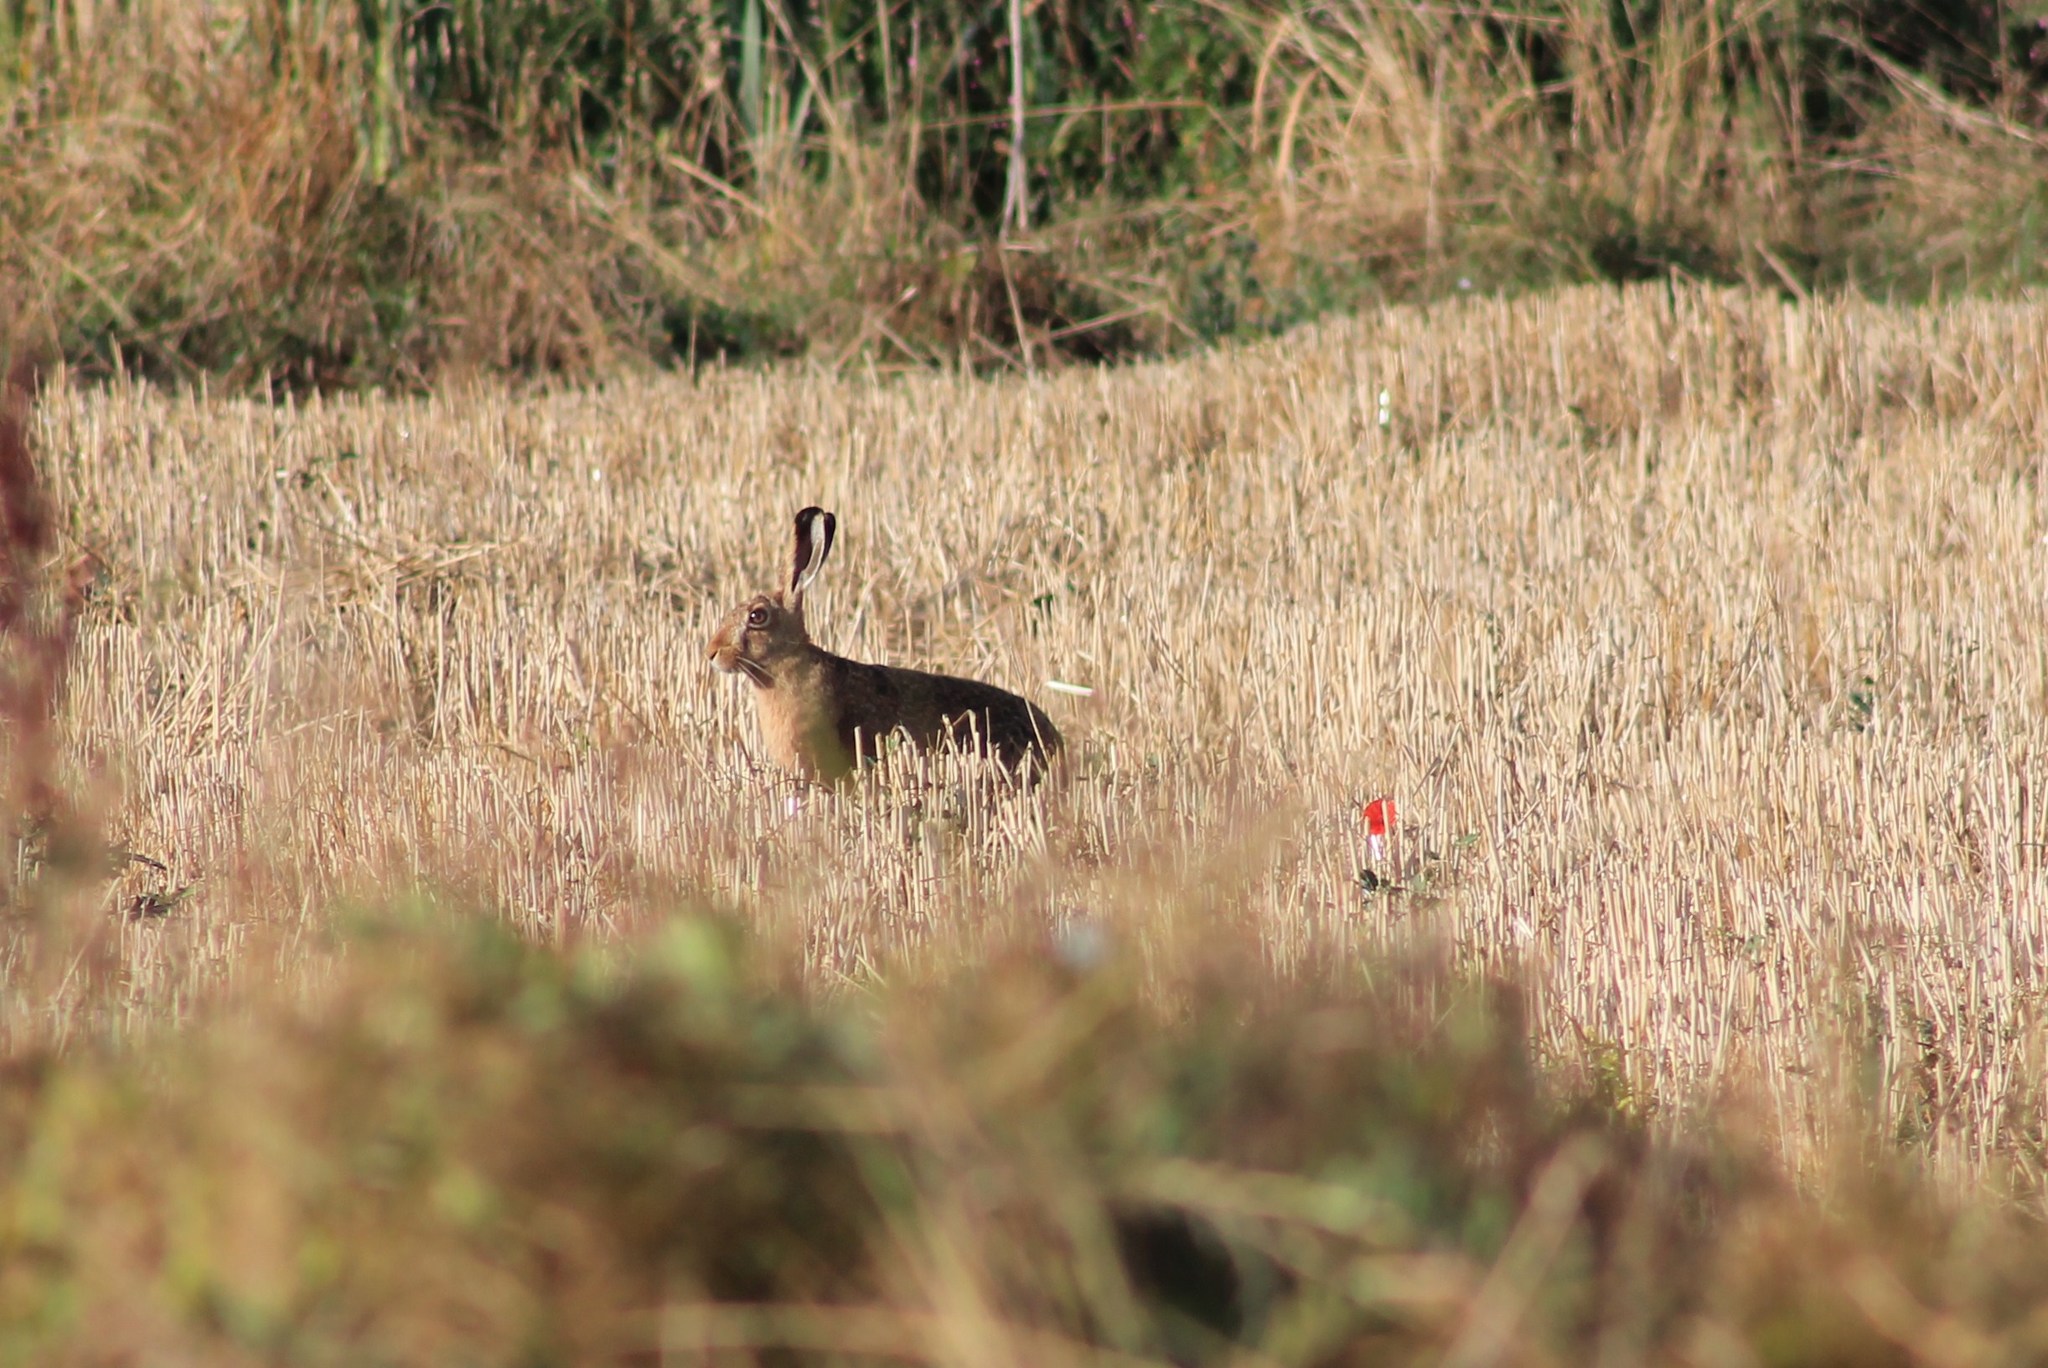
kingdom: Animalia
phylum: Chordata
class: Mammalia
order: Lagomorpha
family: Leporidae
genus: Lepus
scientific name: Lepus europaeus
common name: European hare
